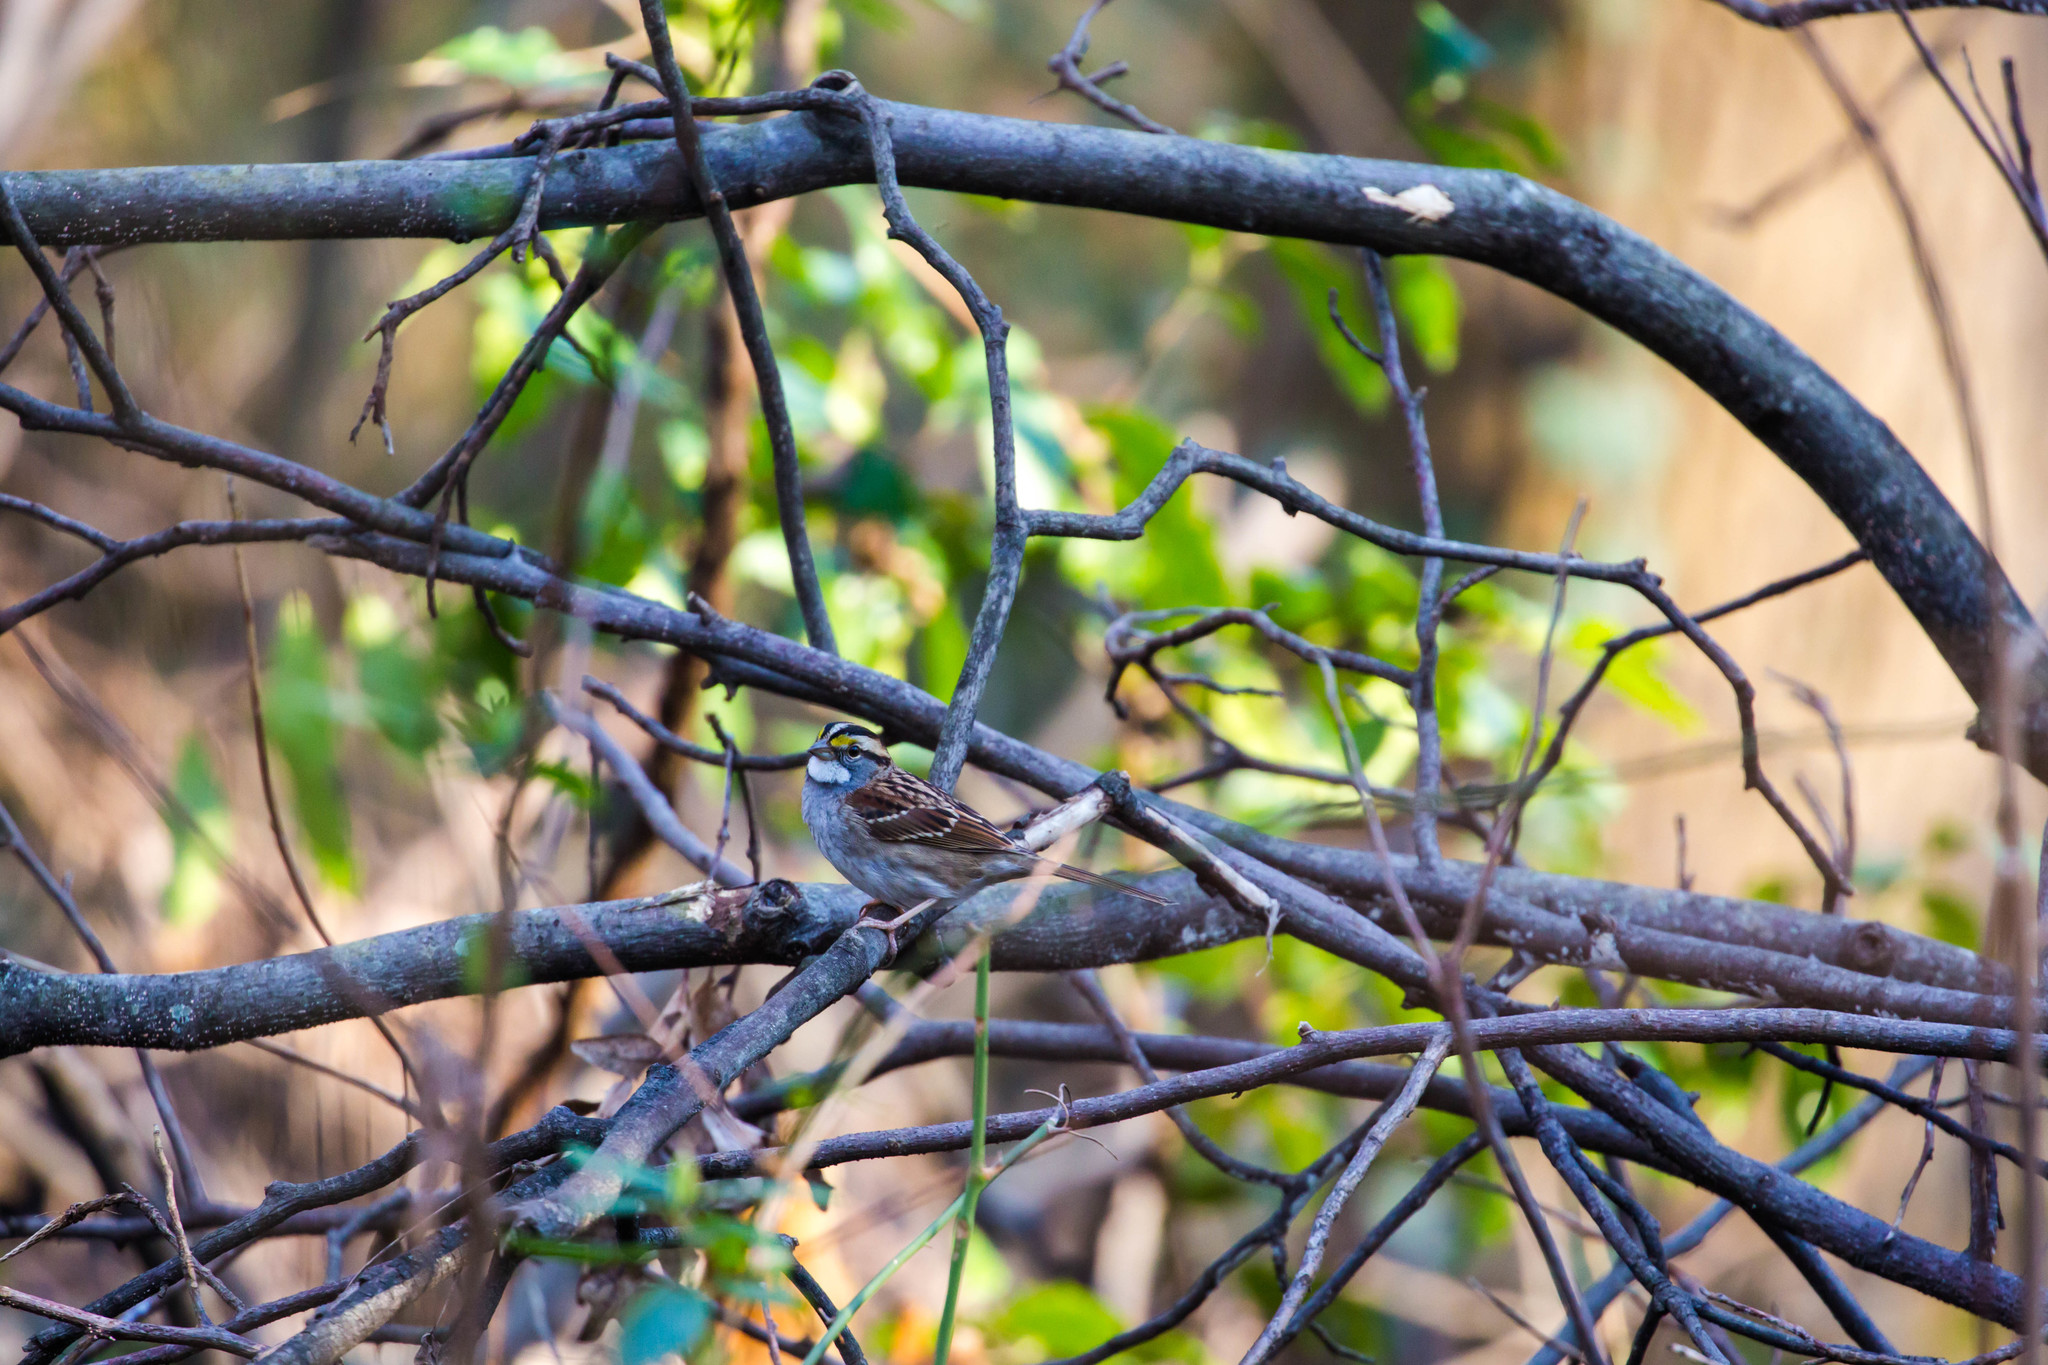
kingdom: Animalia
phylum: Chordata
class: Aves
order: Passeriformes
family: Passerellidae
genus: Zonotrichia
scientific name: Zonotrichia albicollis
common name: White-throated sparrow
